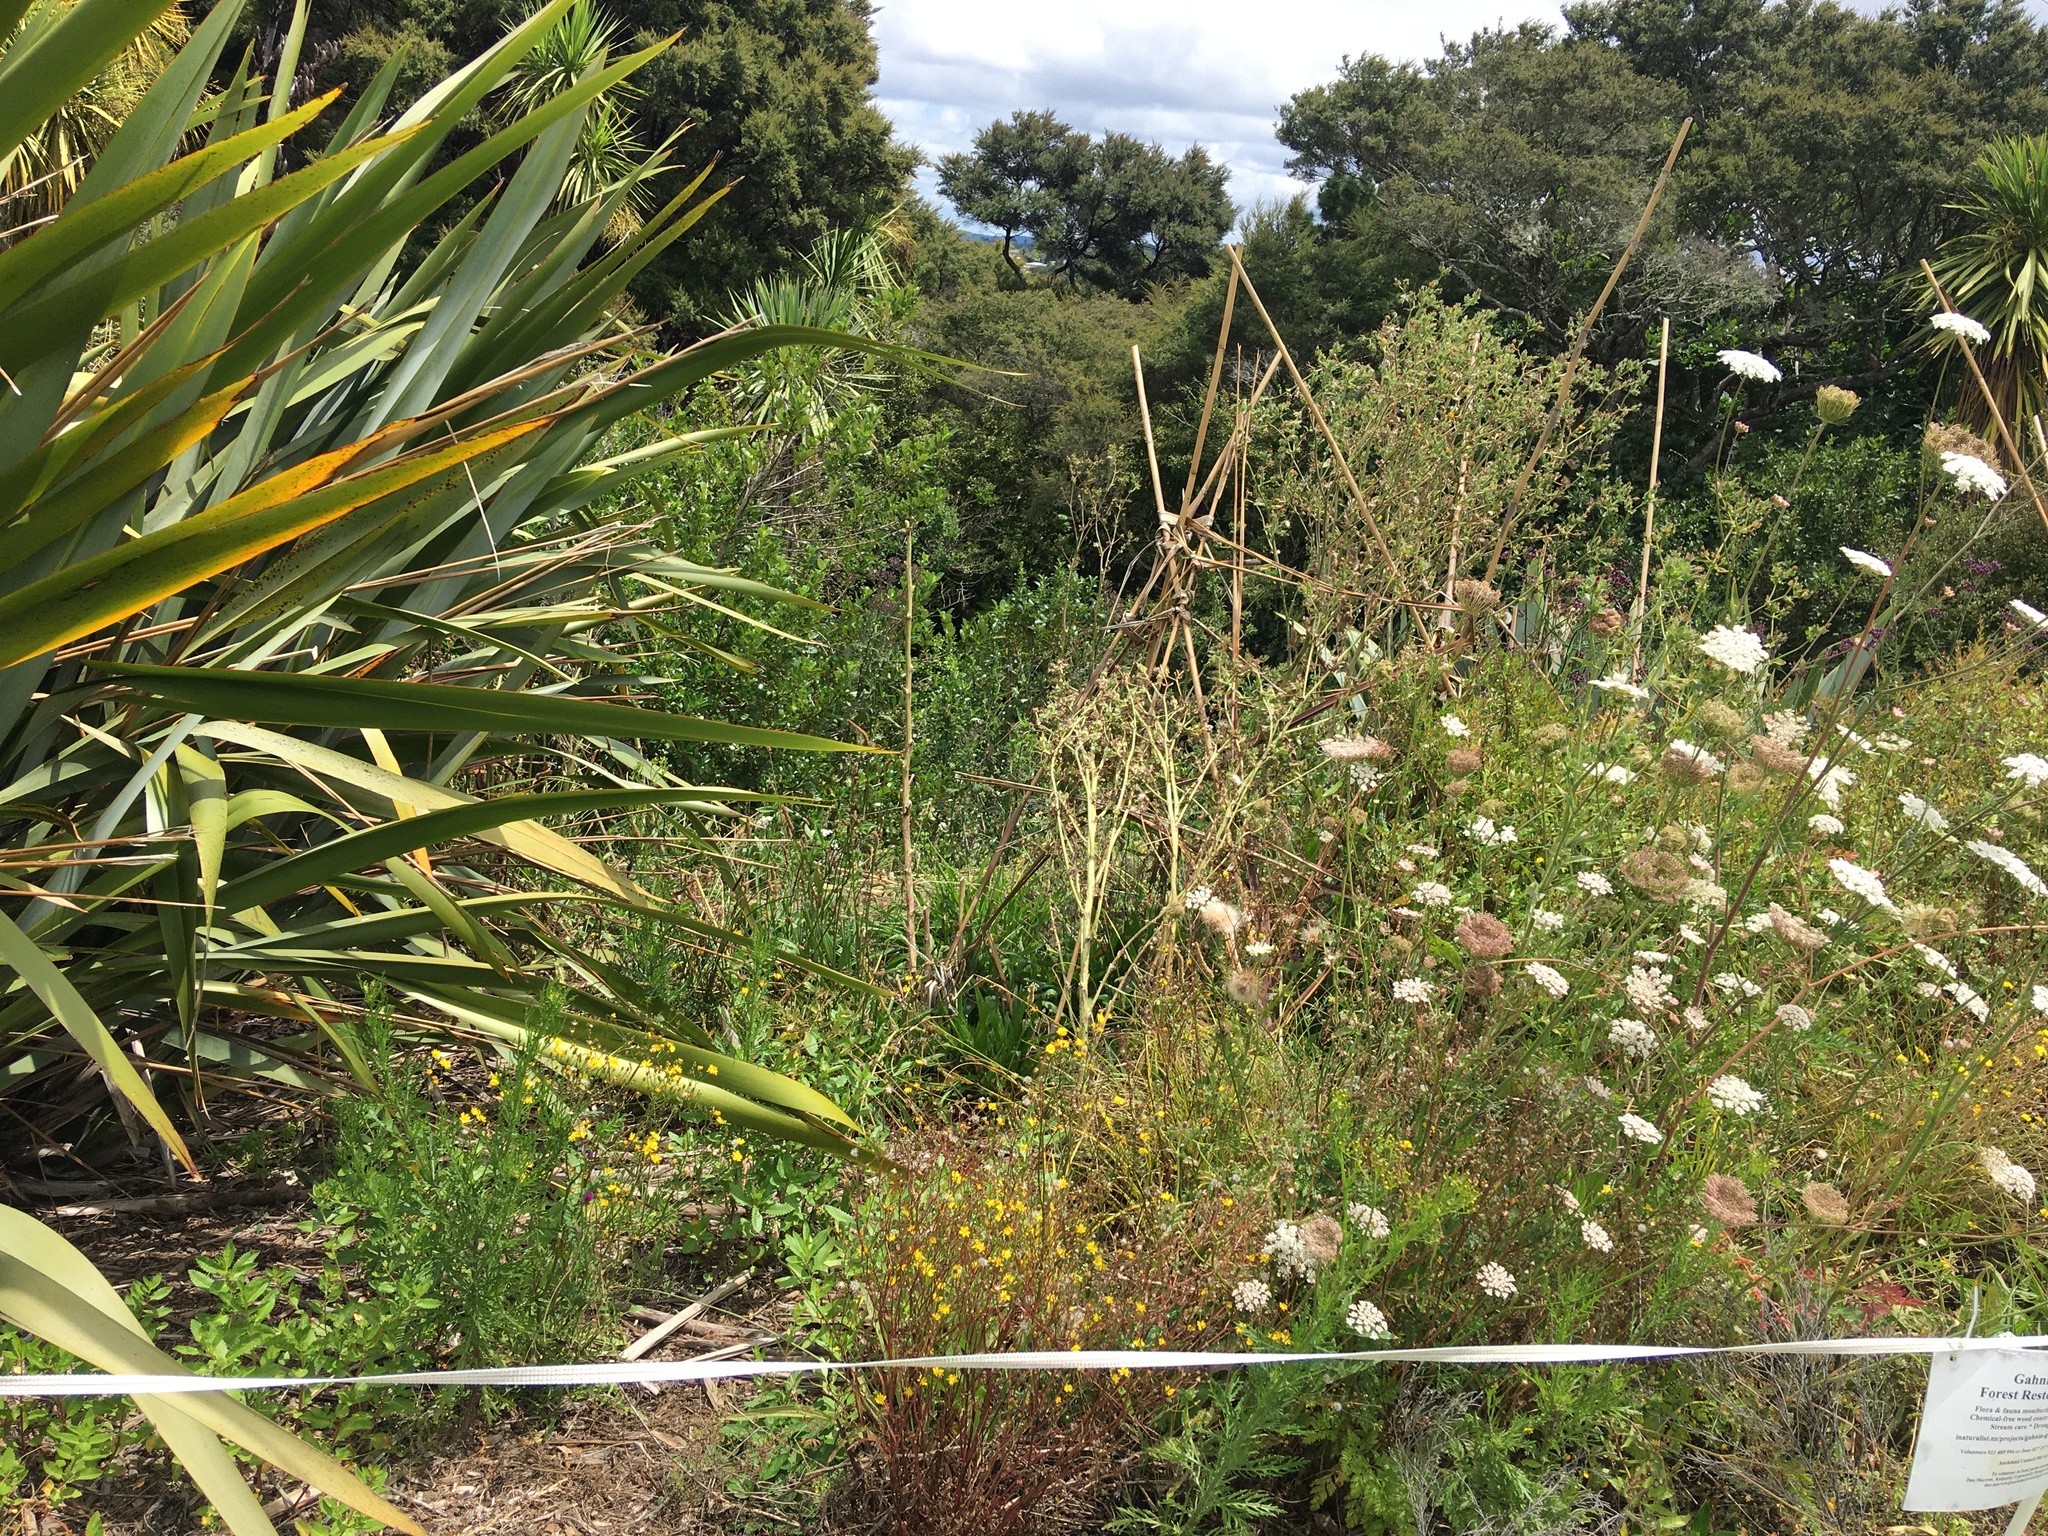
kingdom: Plantae
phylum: Tracheophyta
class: Magnoliopsida
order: Apiales
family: Apiaceae
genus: Daucus
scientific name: Daucus carota
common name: Wild carrot
